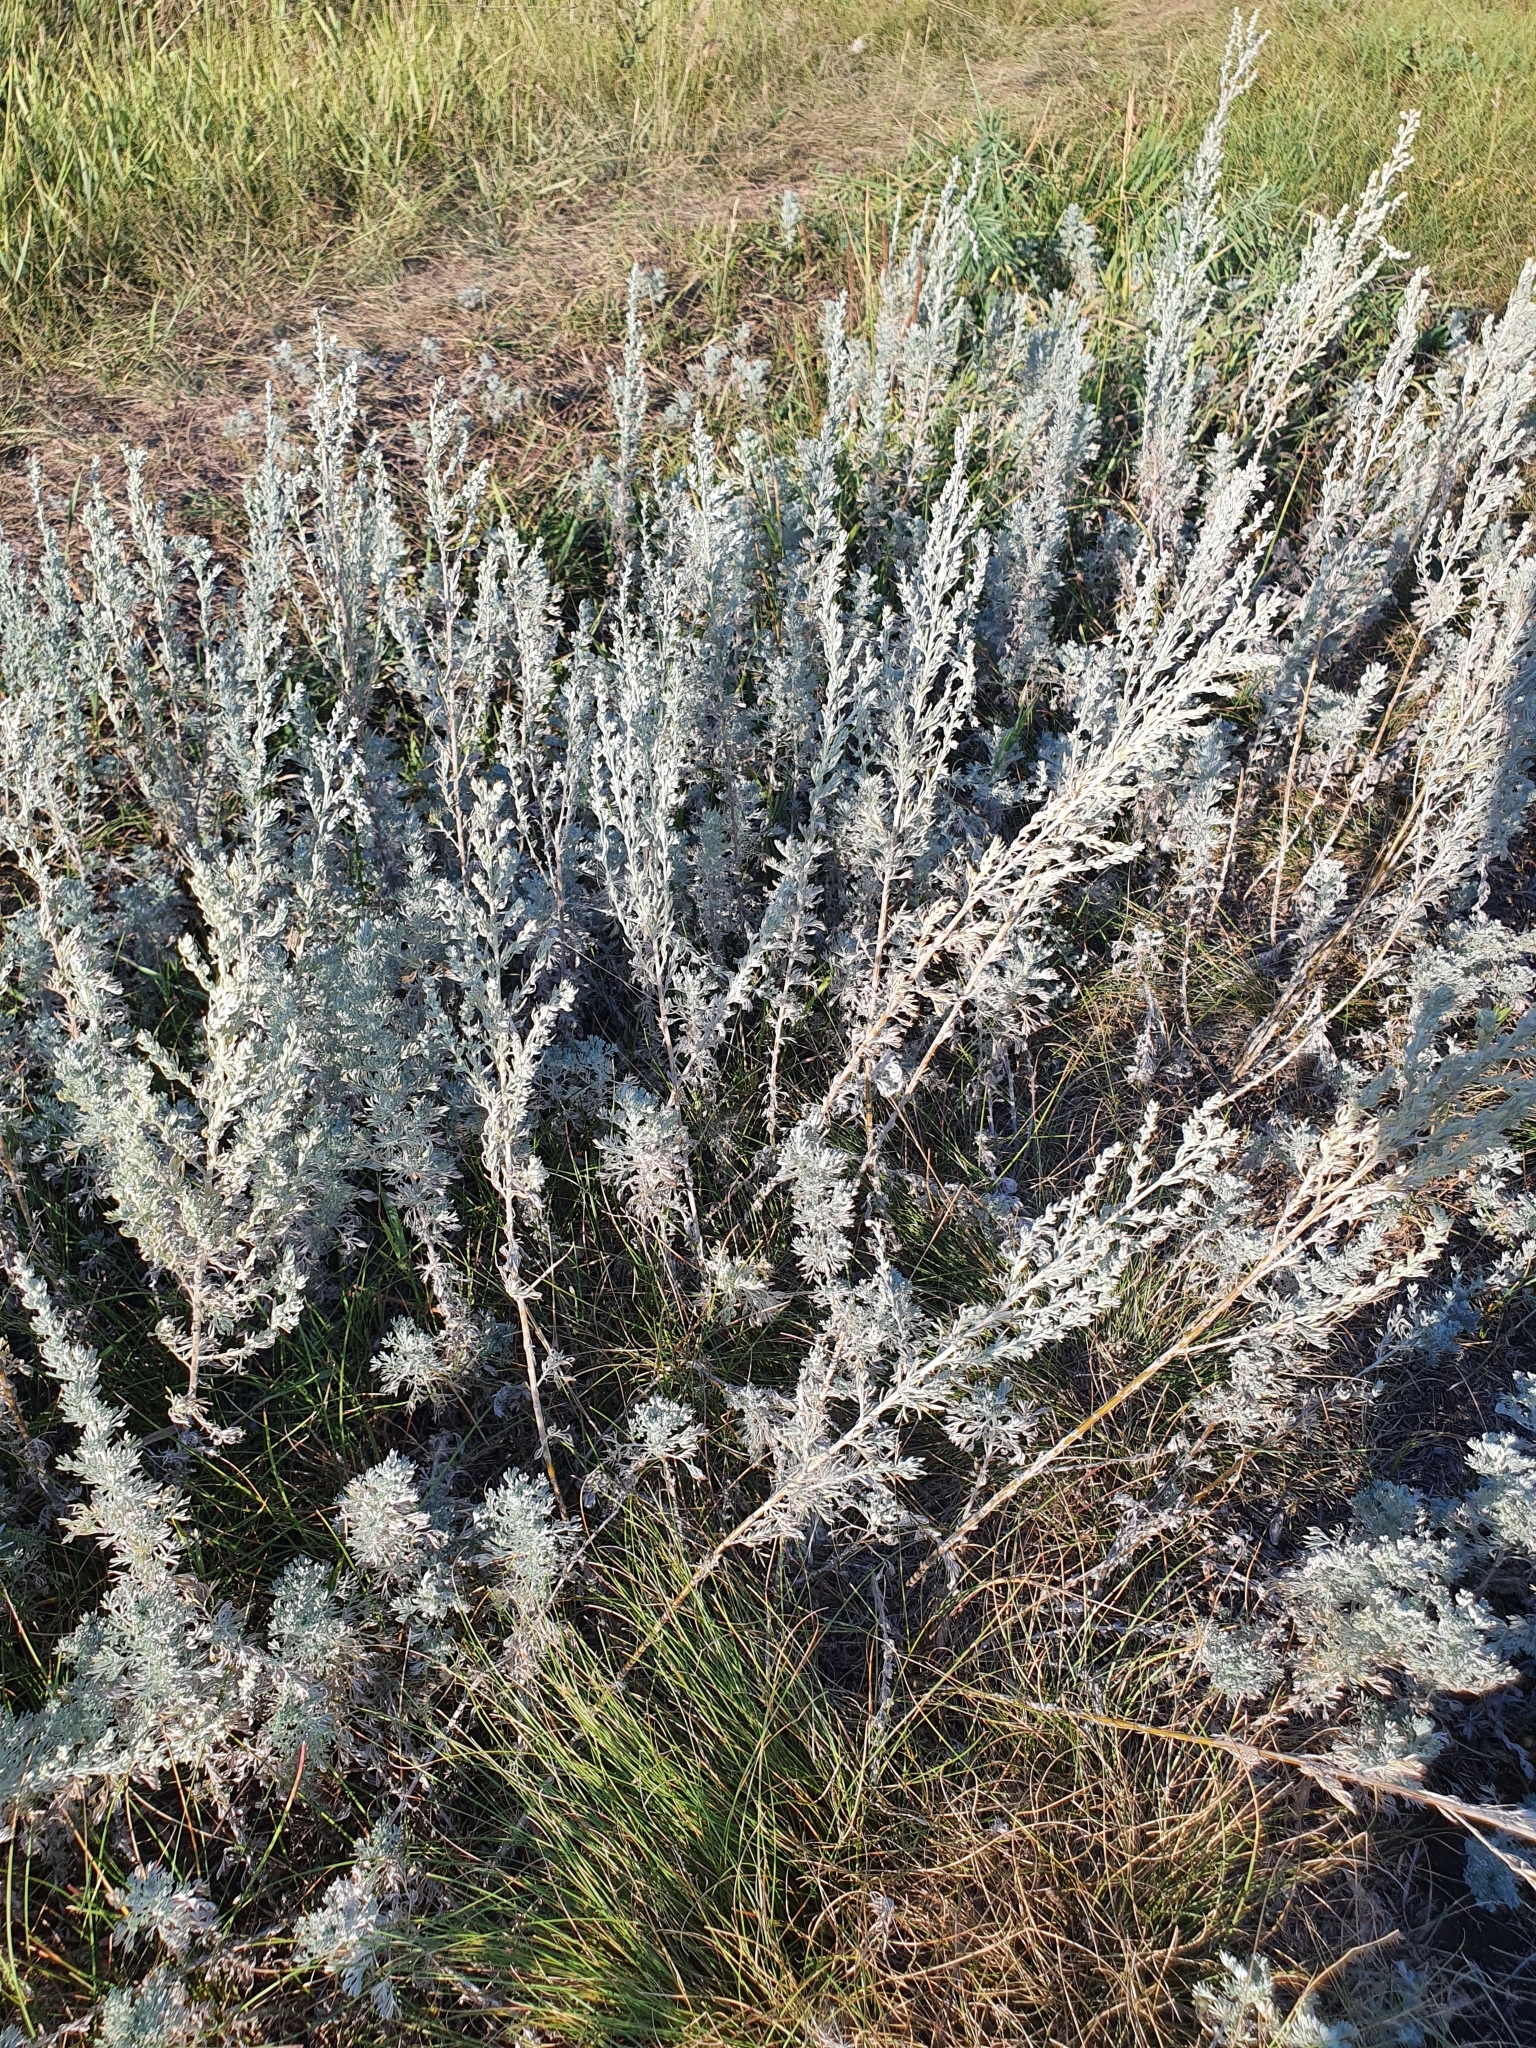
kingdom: Plantae
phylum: Tracheophyta
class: Magnoliopsida
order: Asterales
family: Asteraceae
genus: Artemisia
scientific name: Artemisia austriaca
